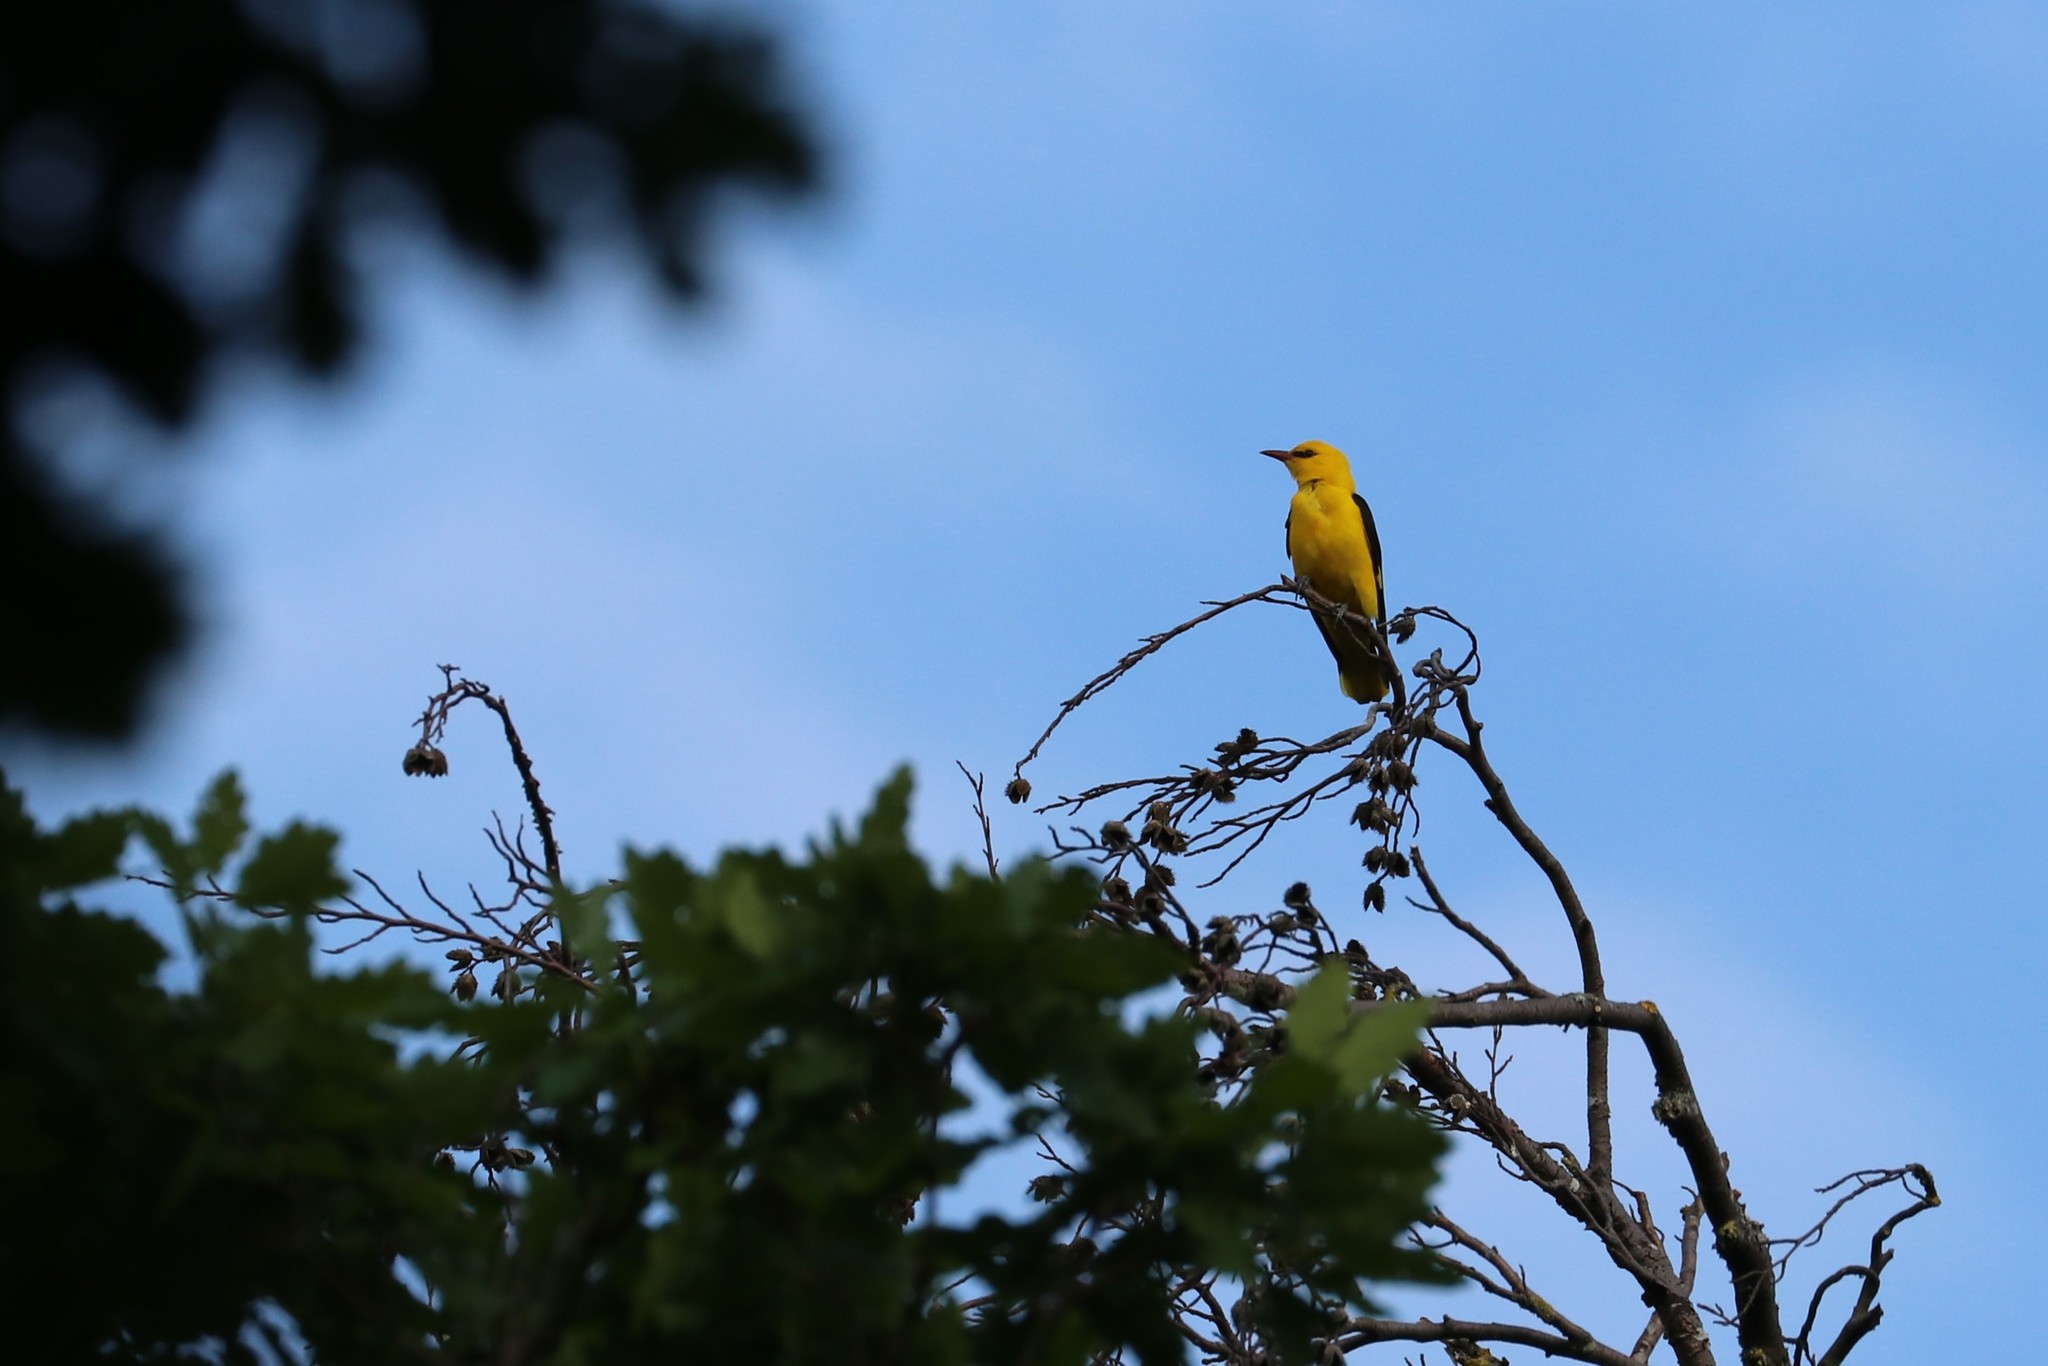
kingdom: Animalia
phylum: Chordata
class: Aves
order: Passeriformes
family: Oriolidae
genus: Oriolus
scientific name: Oriolus oriolus
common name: Eurasian golden oriole
